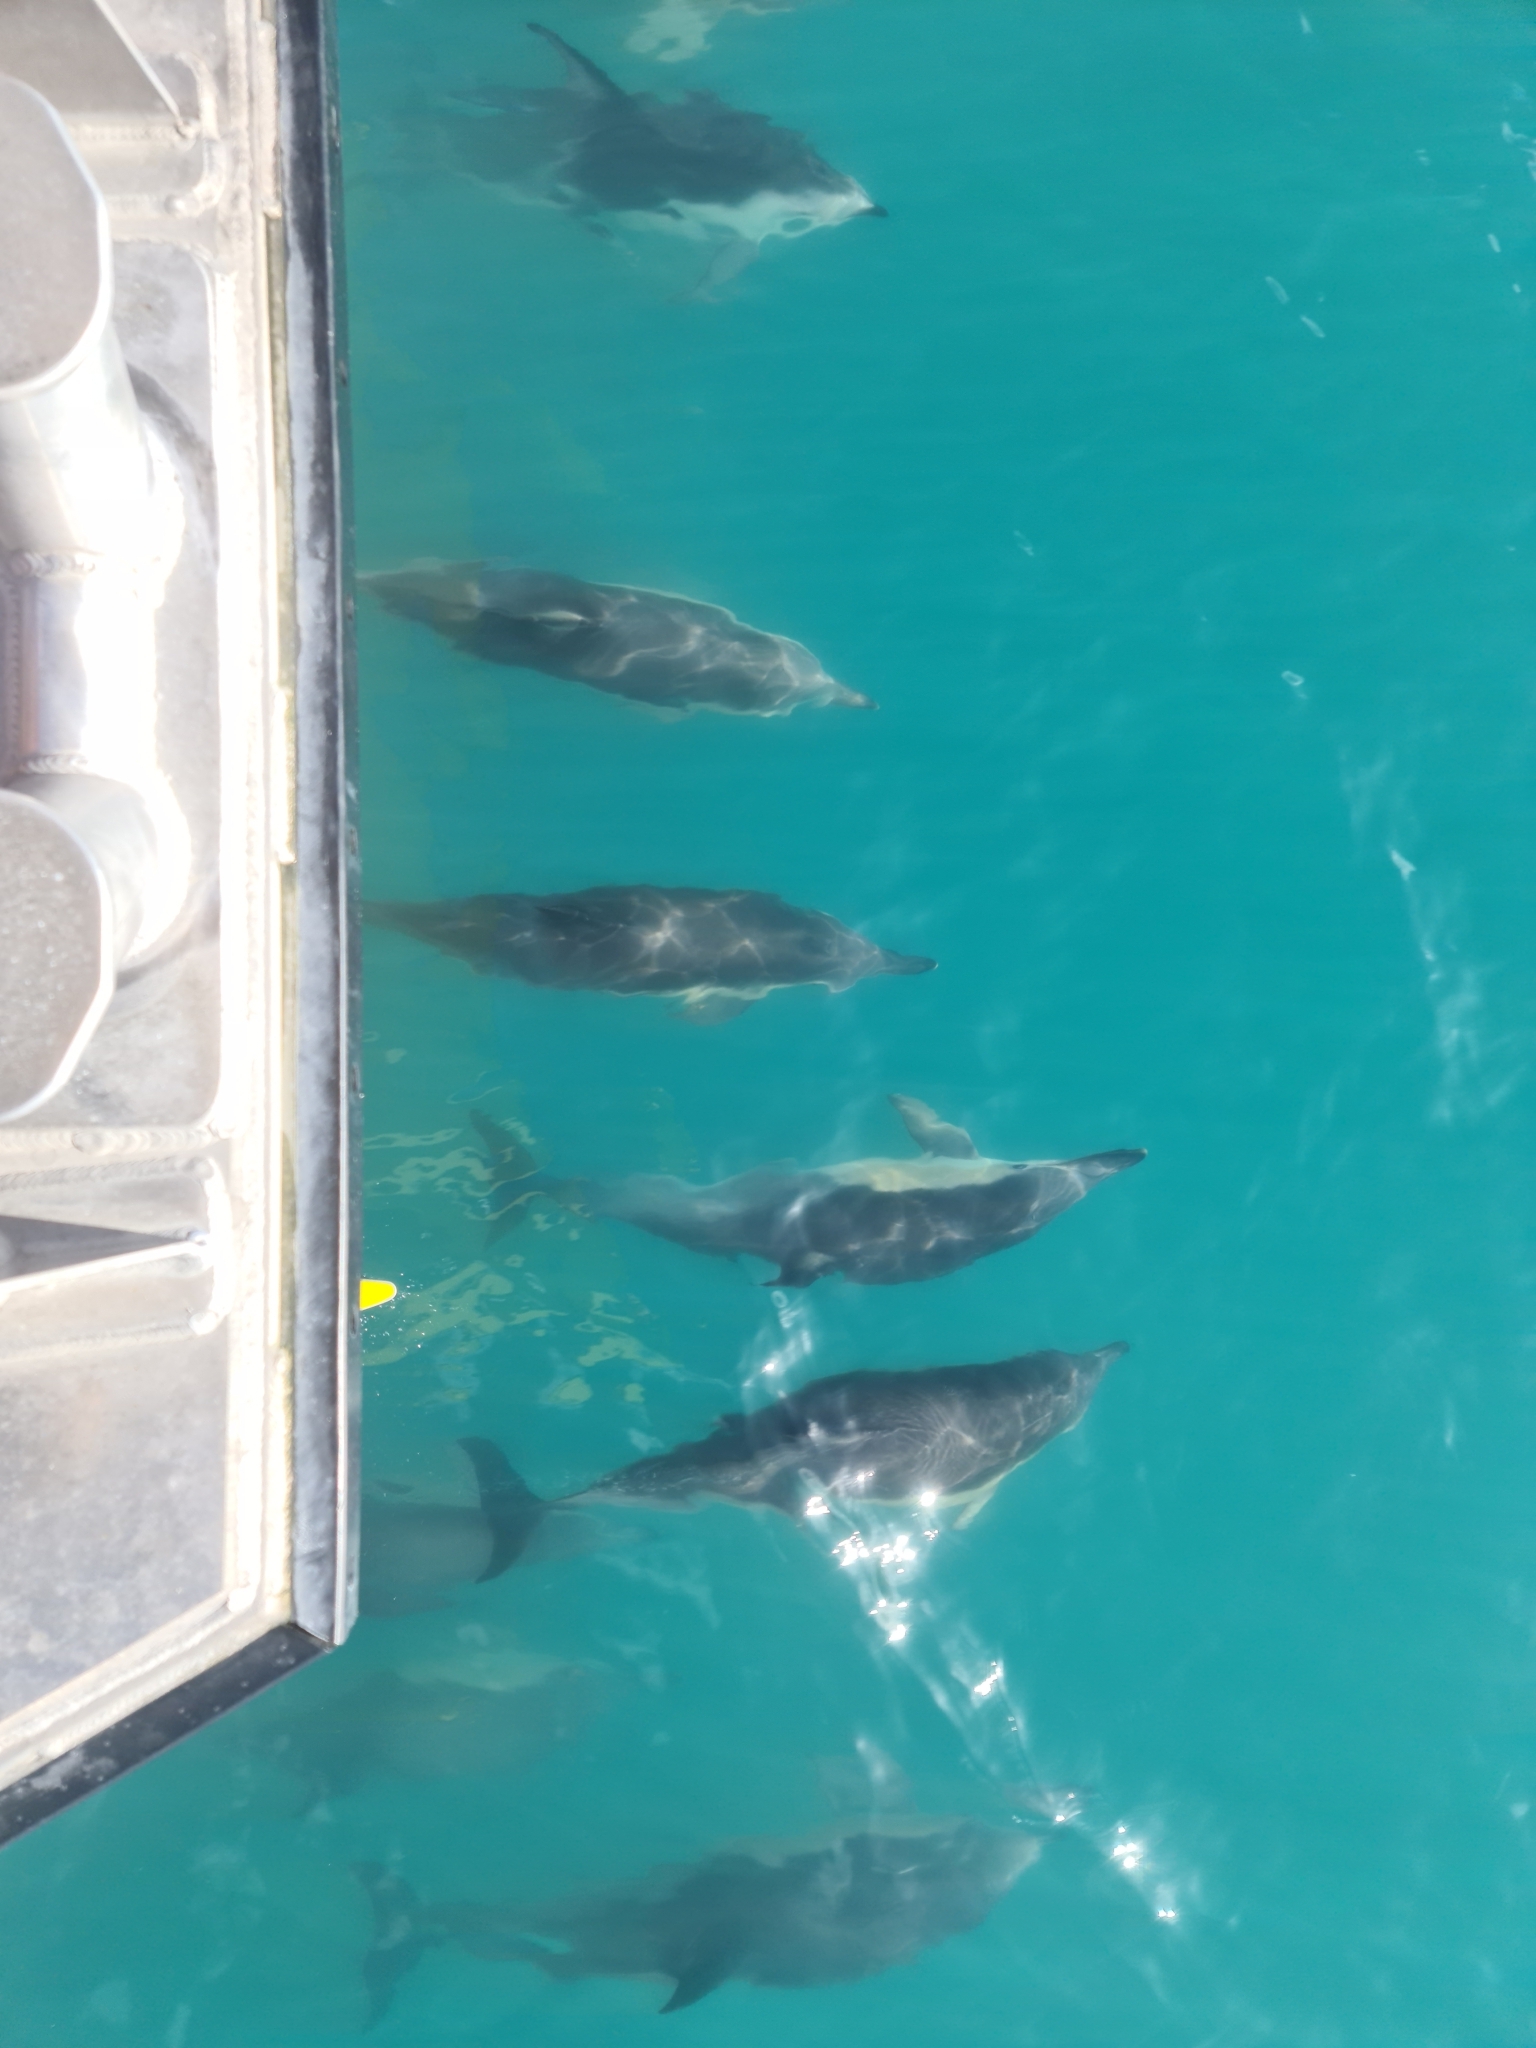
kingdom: Animalia
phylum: Chordata
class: Mammalia
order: Cetacea
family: Delphinidae
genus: Delphinus
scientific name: Delphinus delphis
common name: Common dolphin
